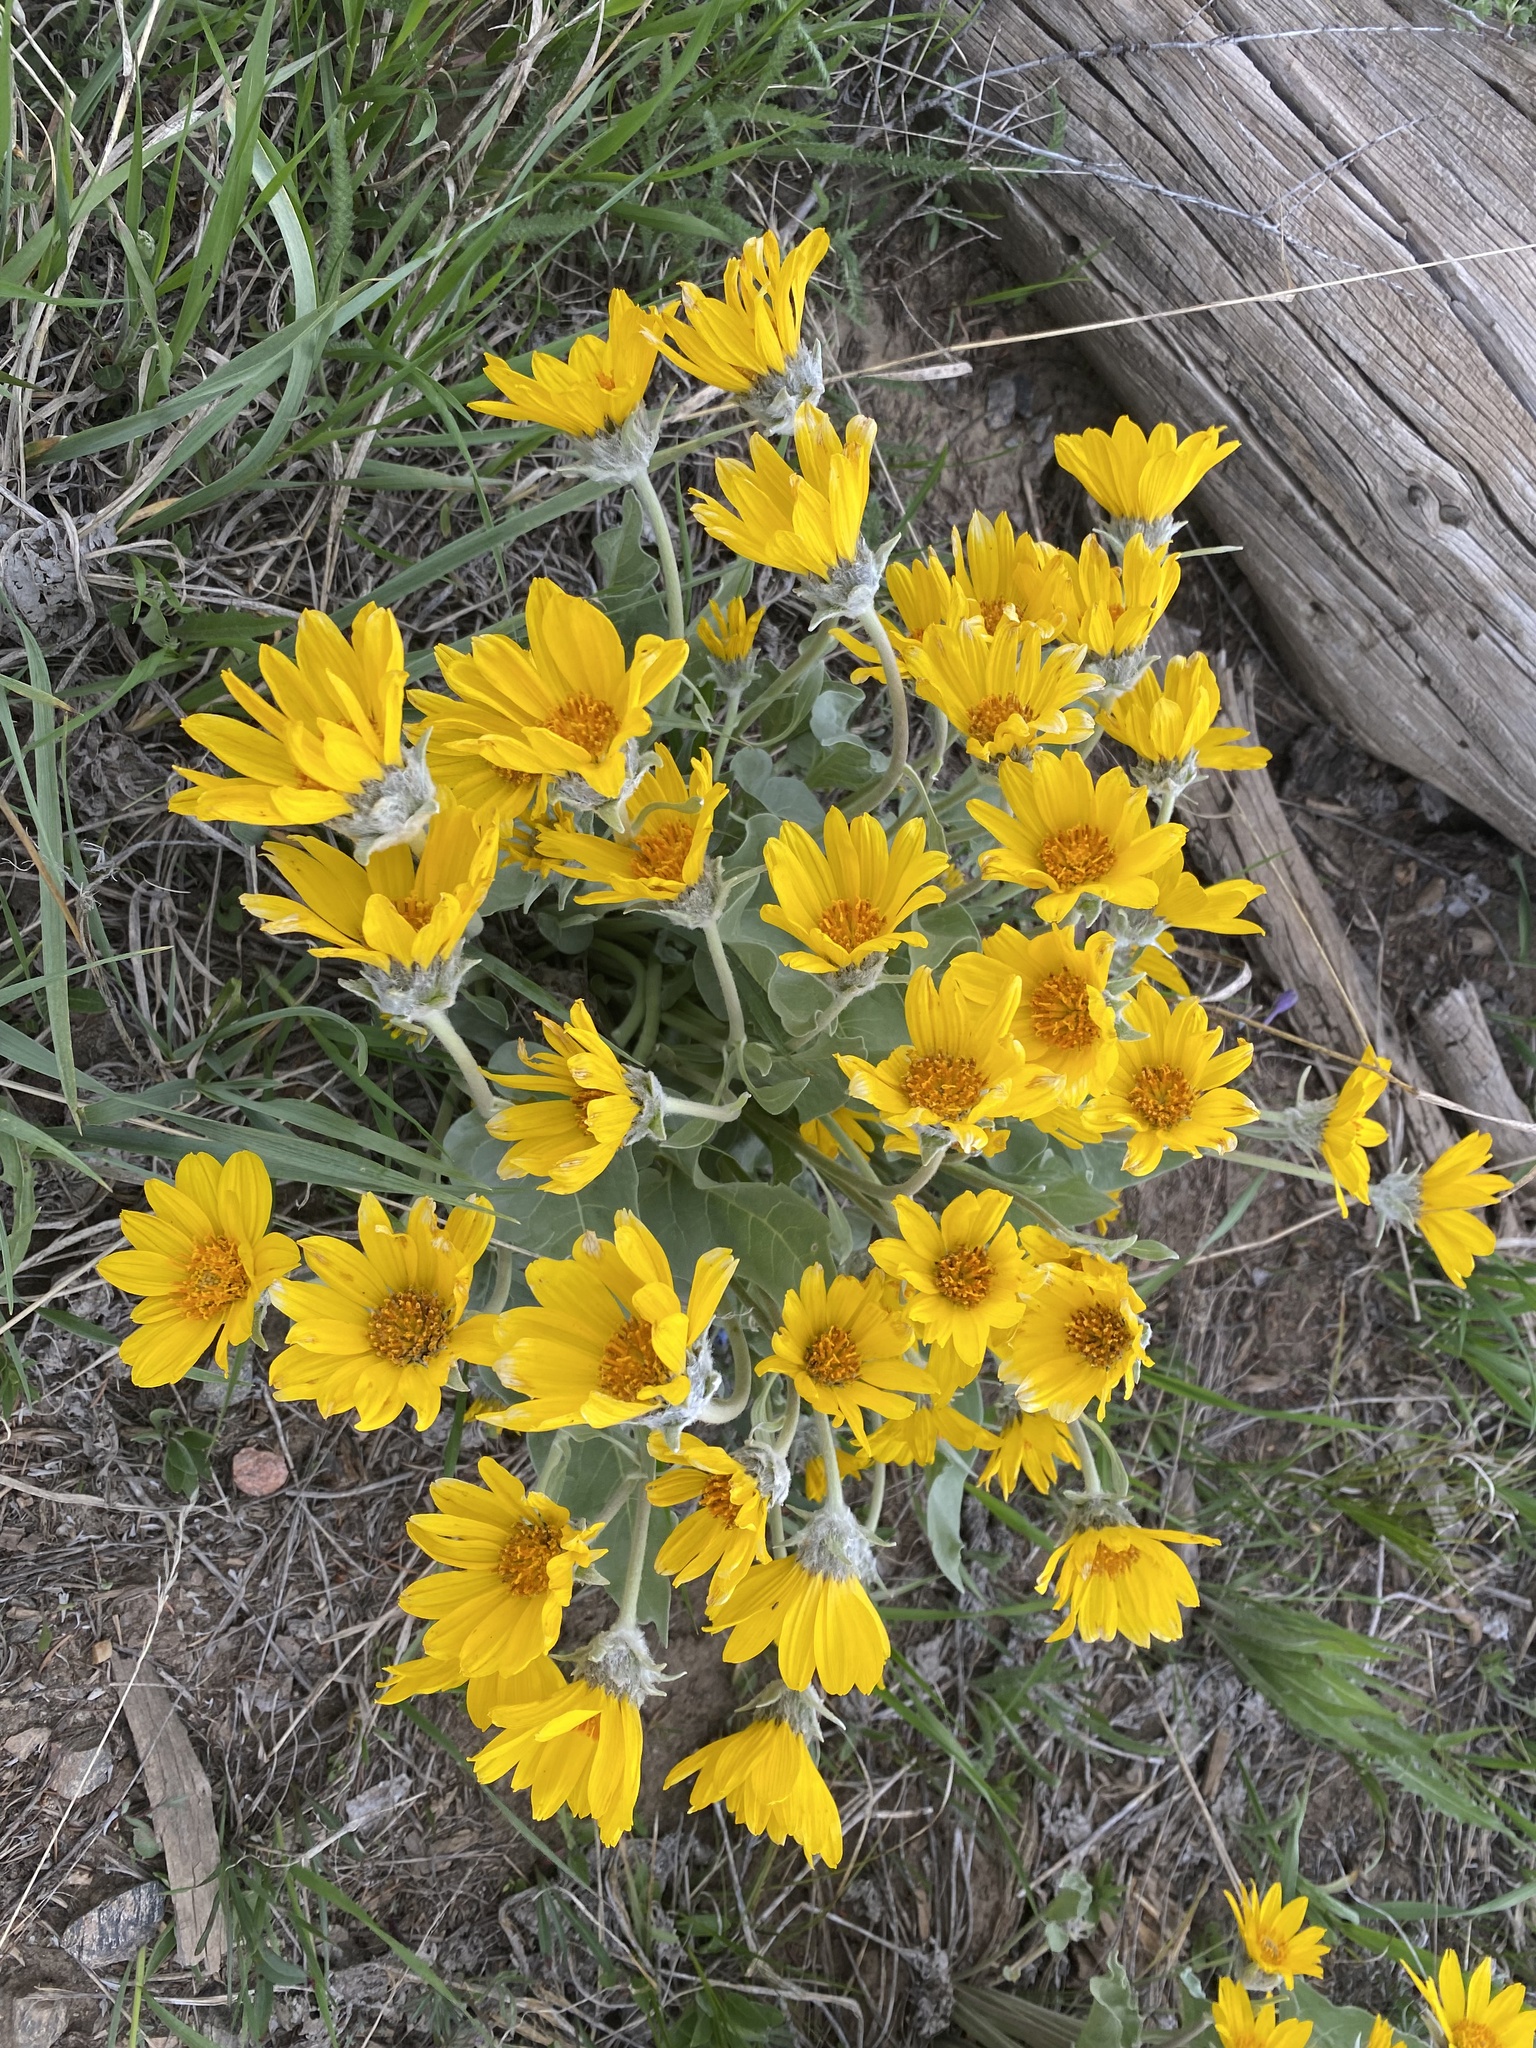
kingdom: Plantae
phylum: Tracheophyta
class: Magnoliopsida
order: Asterales
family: Asteraceae
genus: Wyethia
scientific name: Wyethia sagittata
